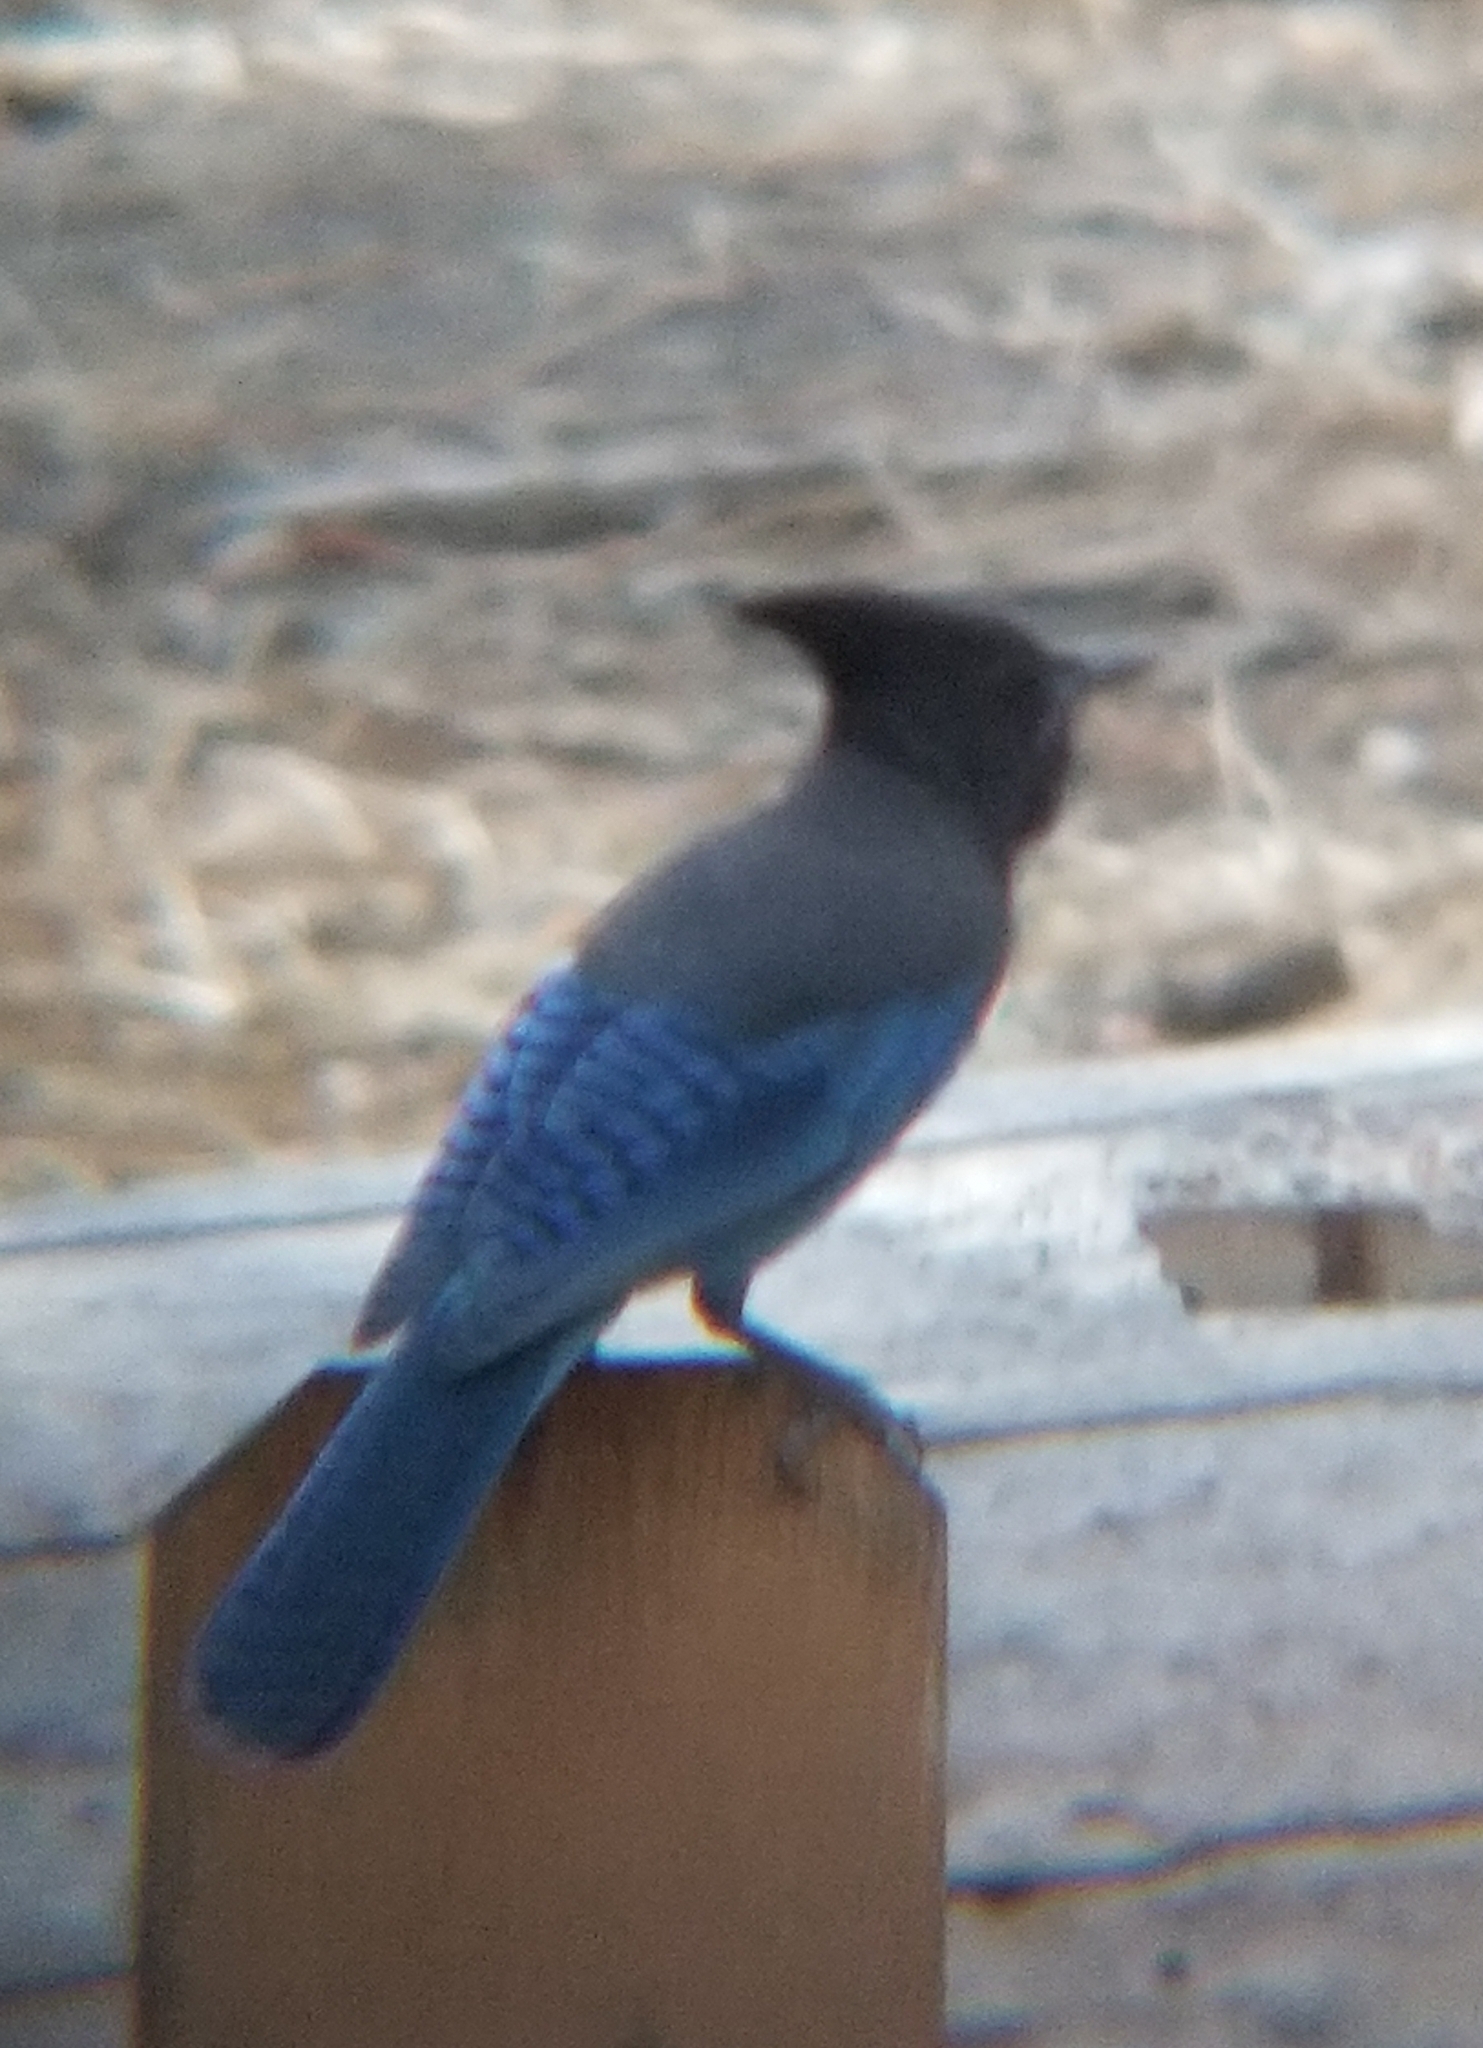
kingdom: Animalia
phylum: Chordata
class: Aves
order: Passeriformes
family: Corvidae
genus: Cyanocitta
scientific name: Cyanocitta stelleri
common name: Steller's jay
